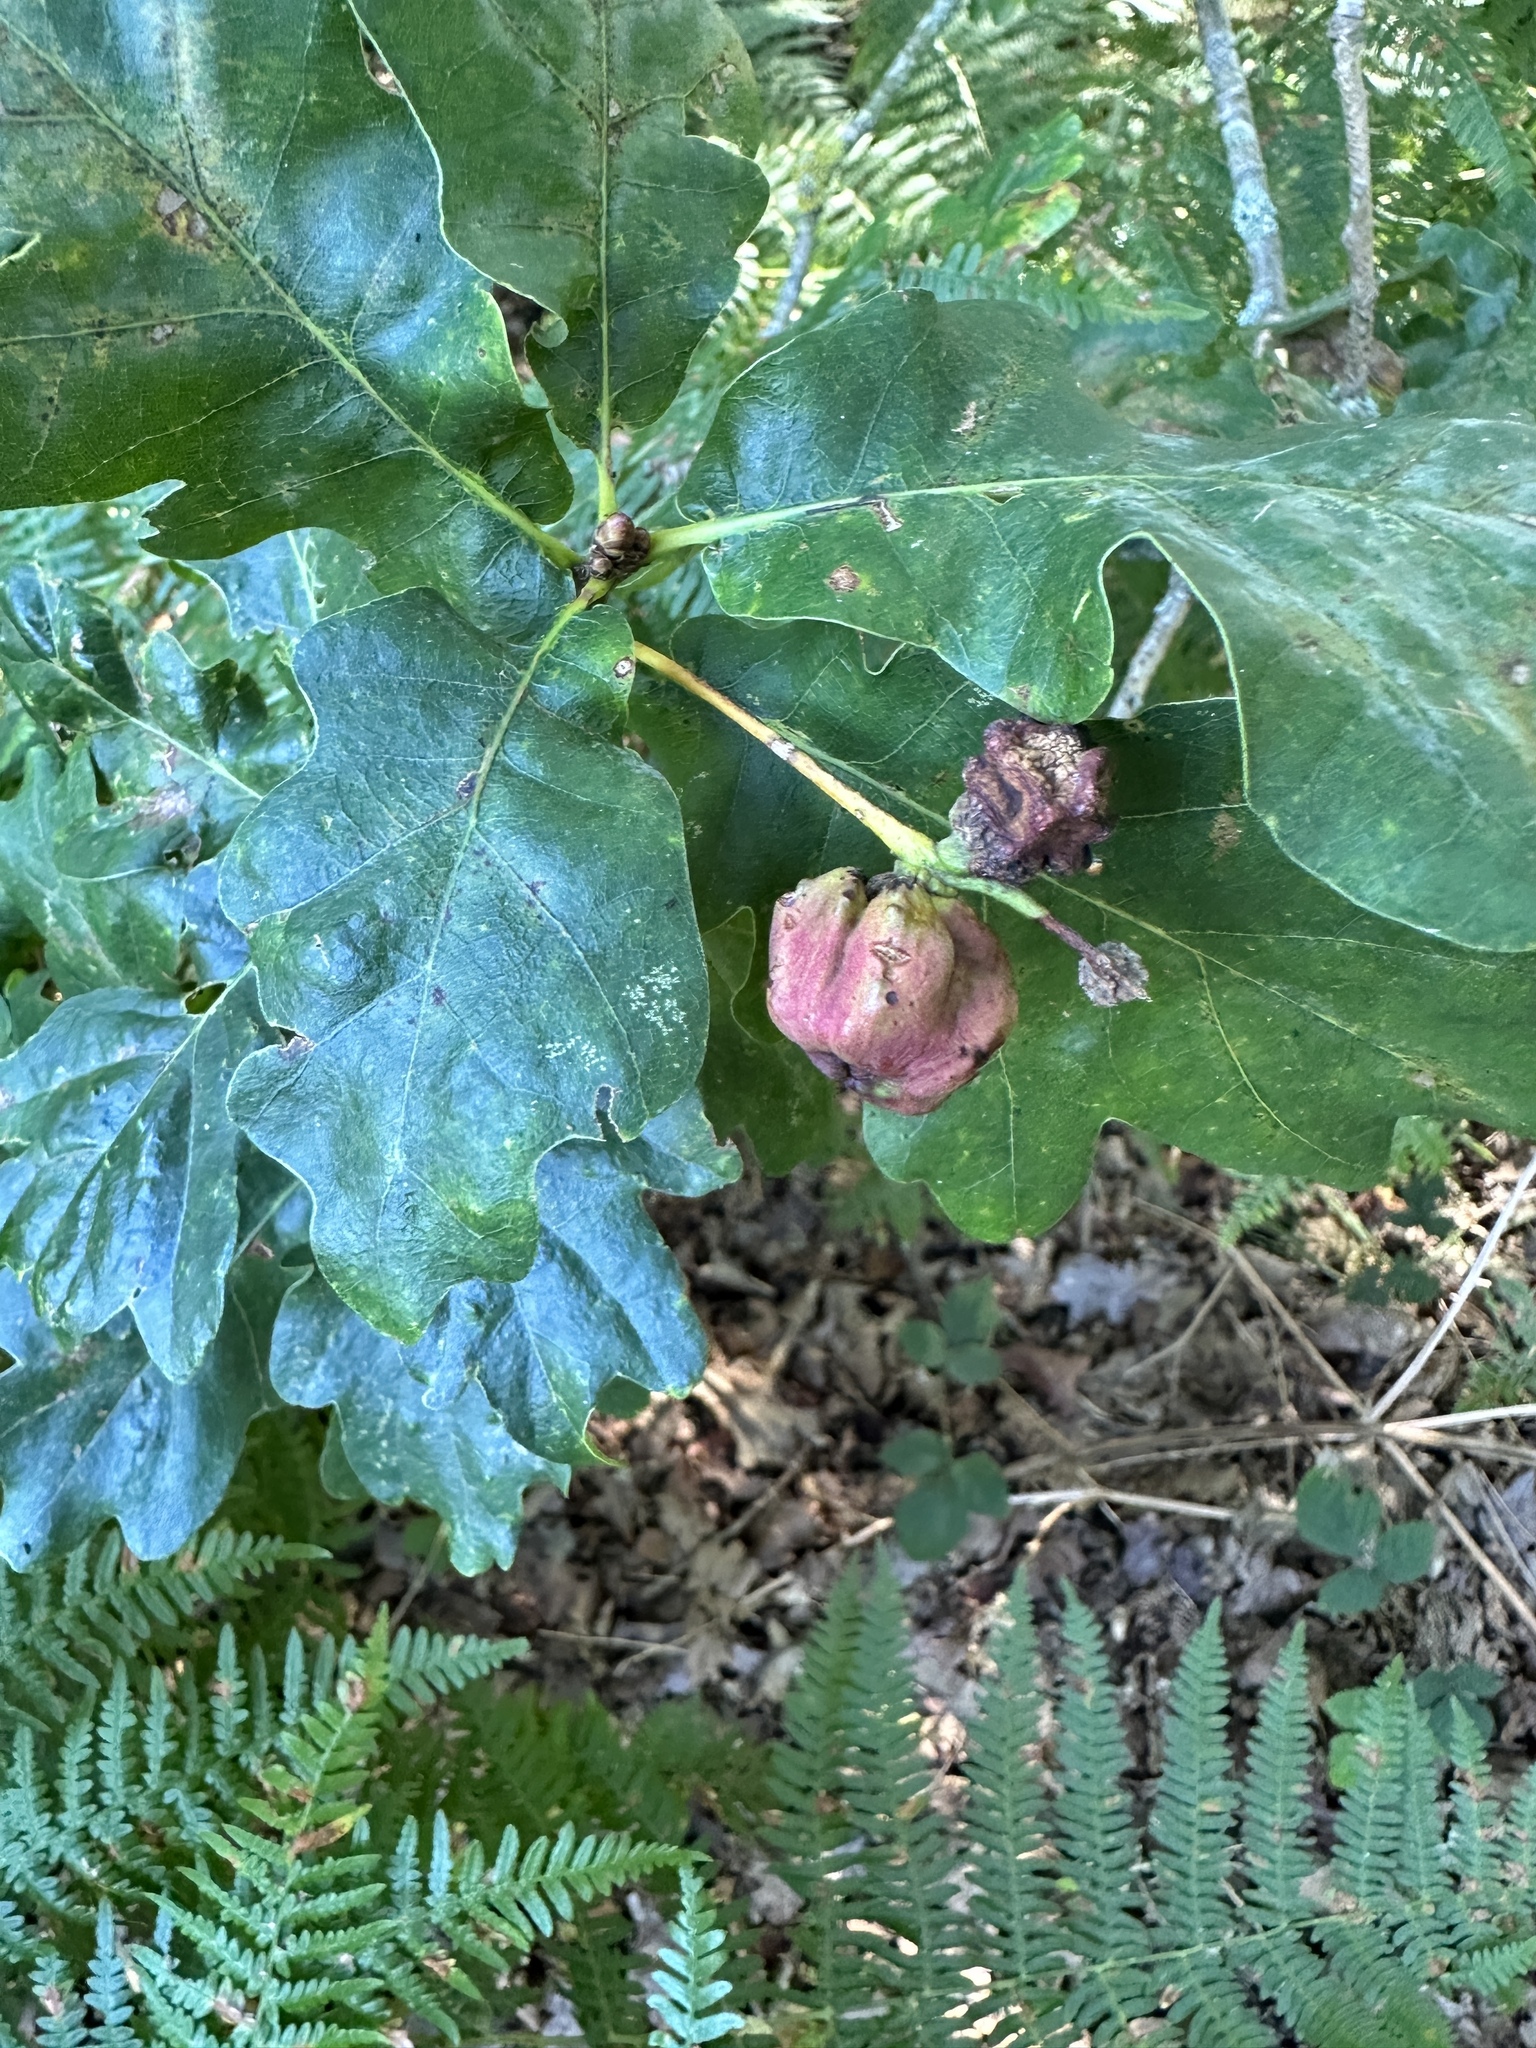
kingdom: Animalia
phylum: Arthropoda
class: Insecta
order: Hymenoptera
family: Cynipidae
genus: Andricus
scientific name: Andricus quercuscalicis
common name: Knopper gall
